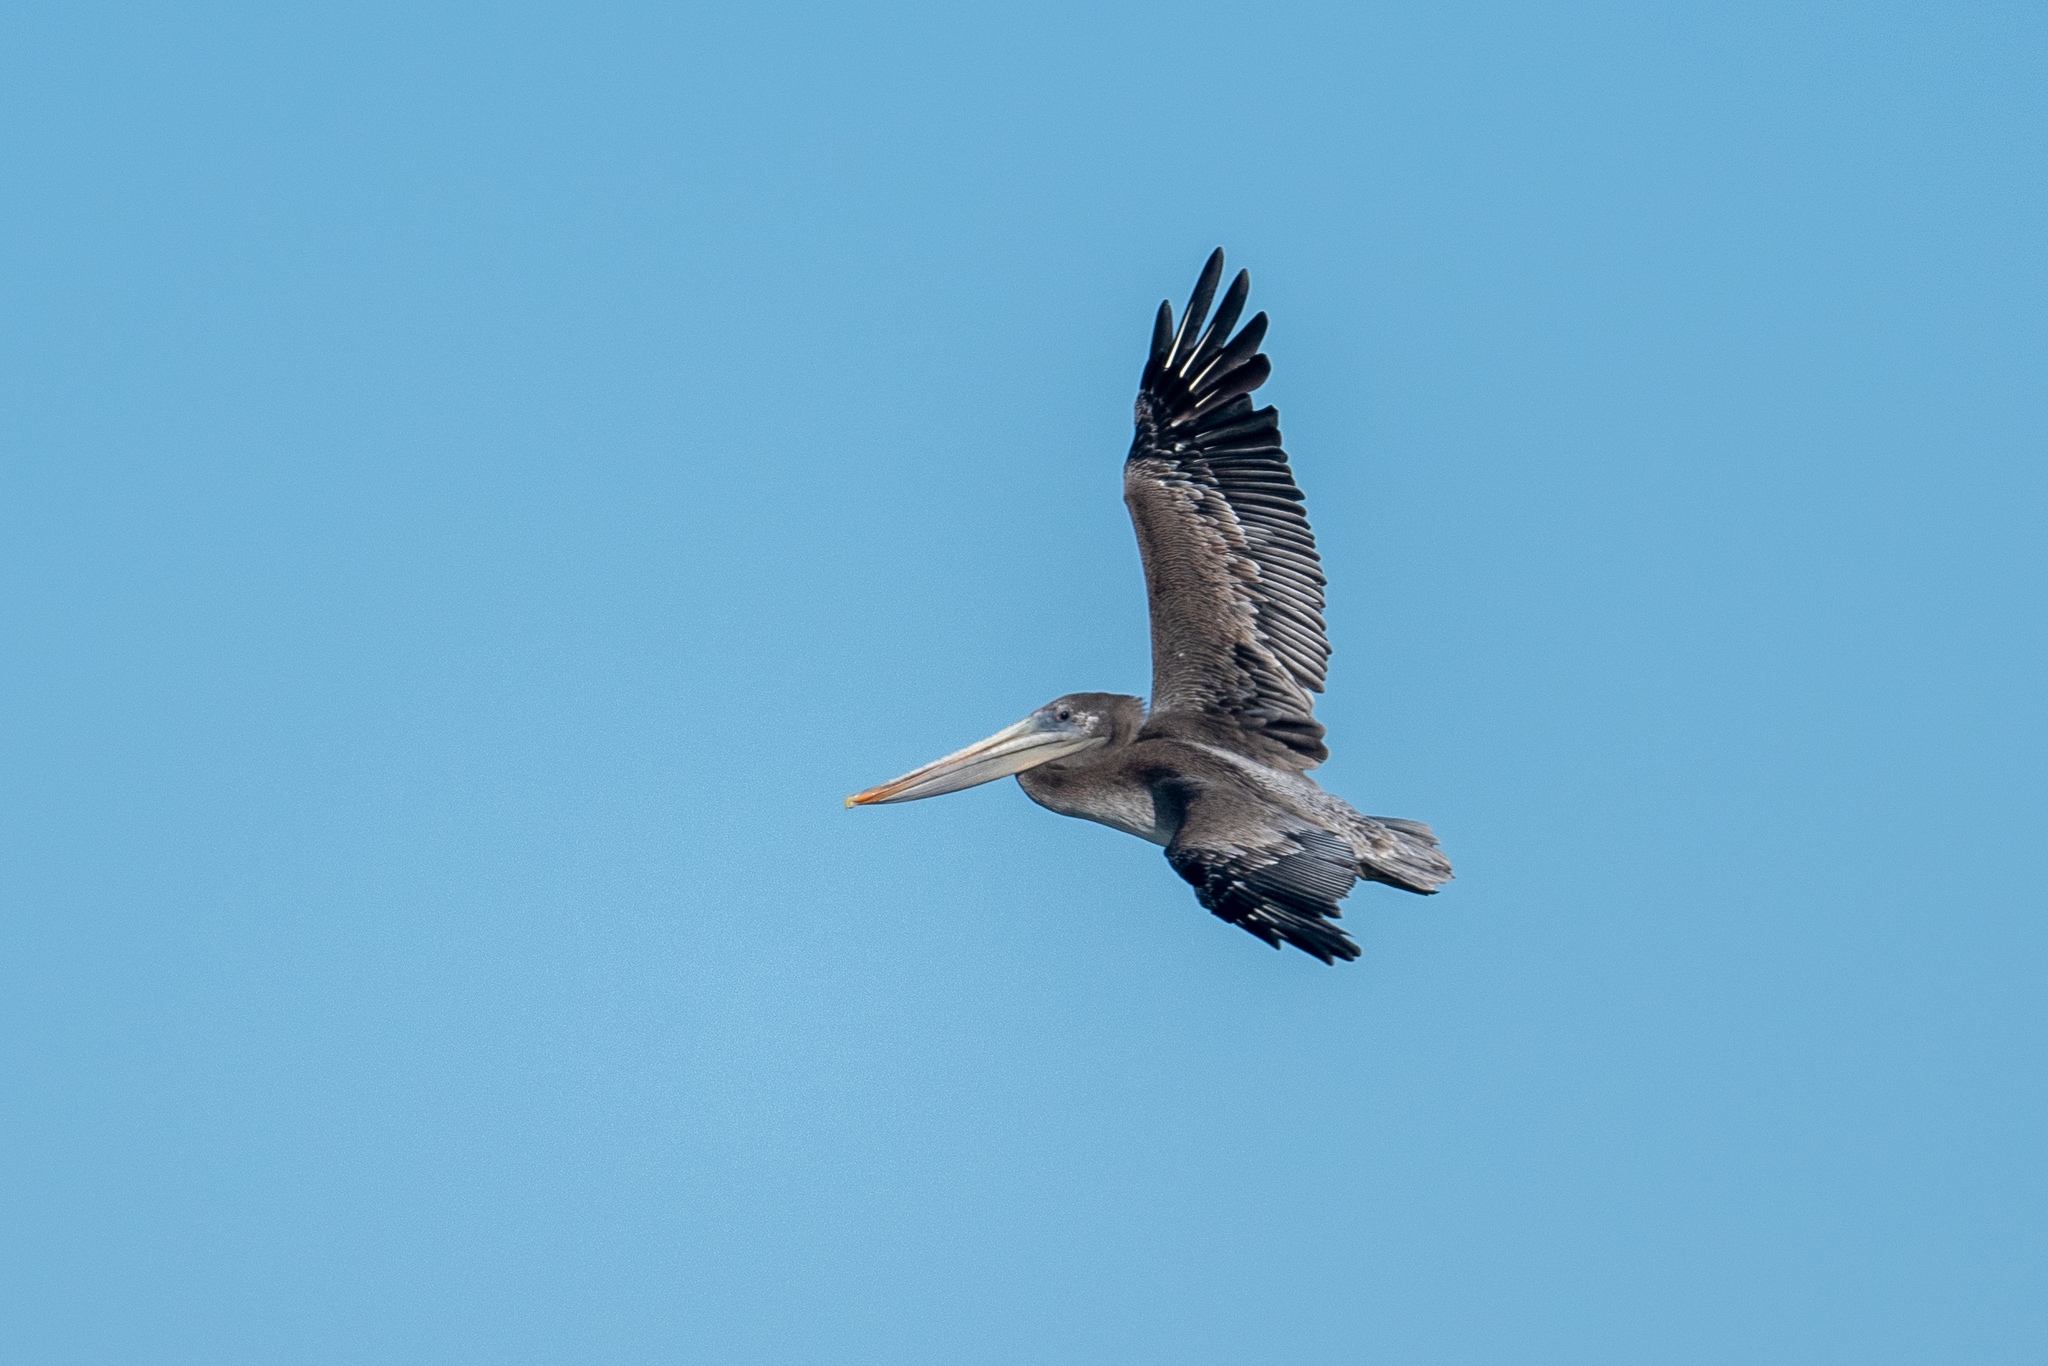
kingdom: Animalia
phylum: Chordata
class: Aves
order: Pelecaniformes
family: Pelecanidae
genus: Pelecanus
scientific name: Pelecanus occidentalis
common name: Brown pelican
